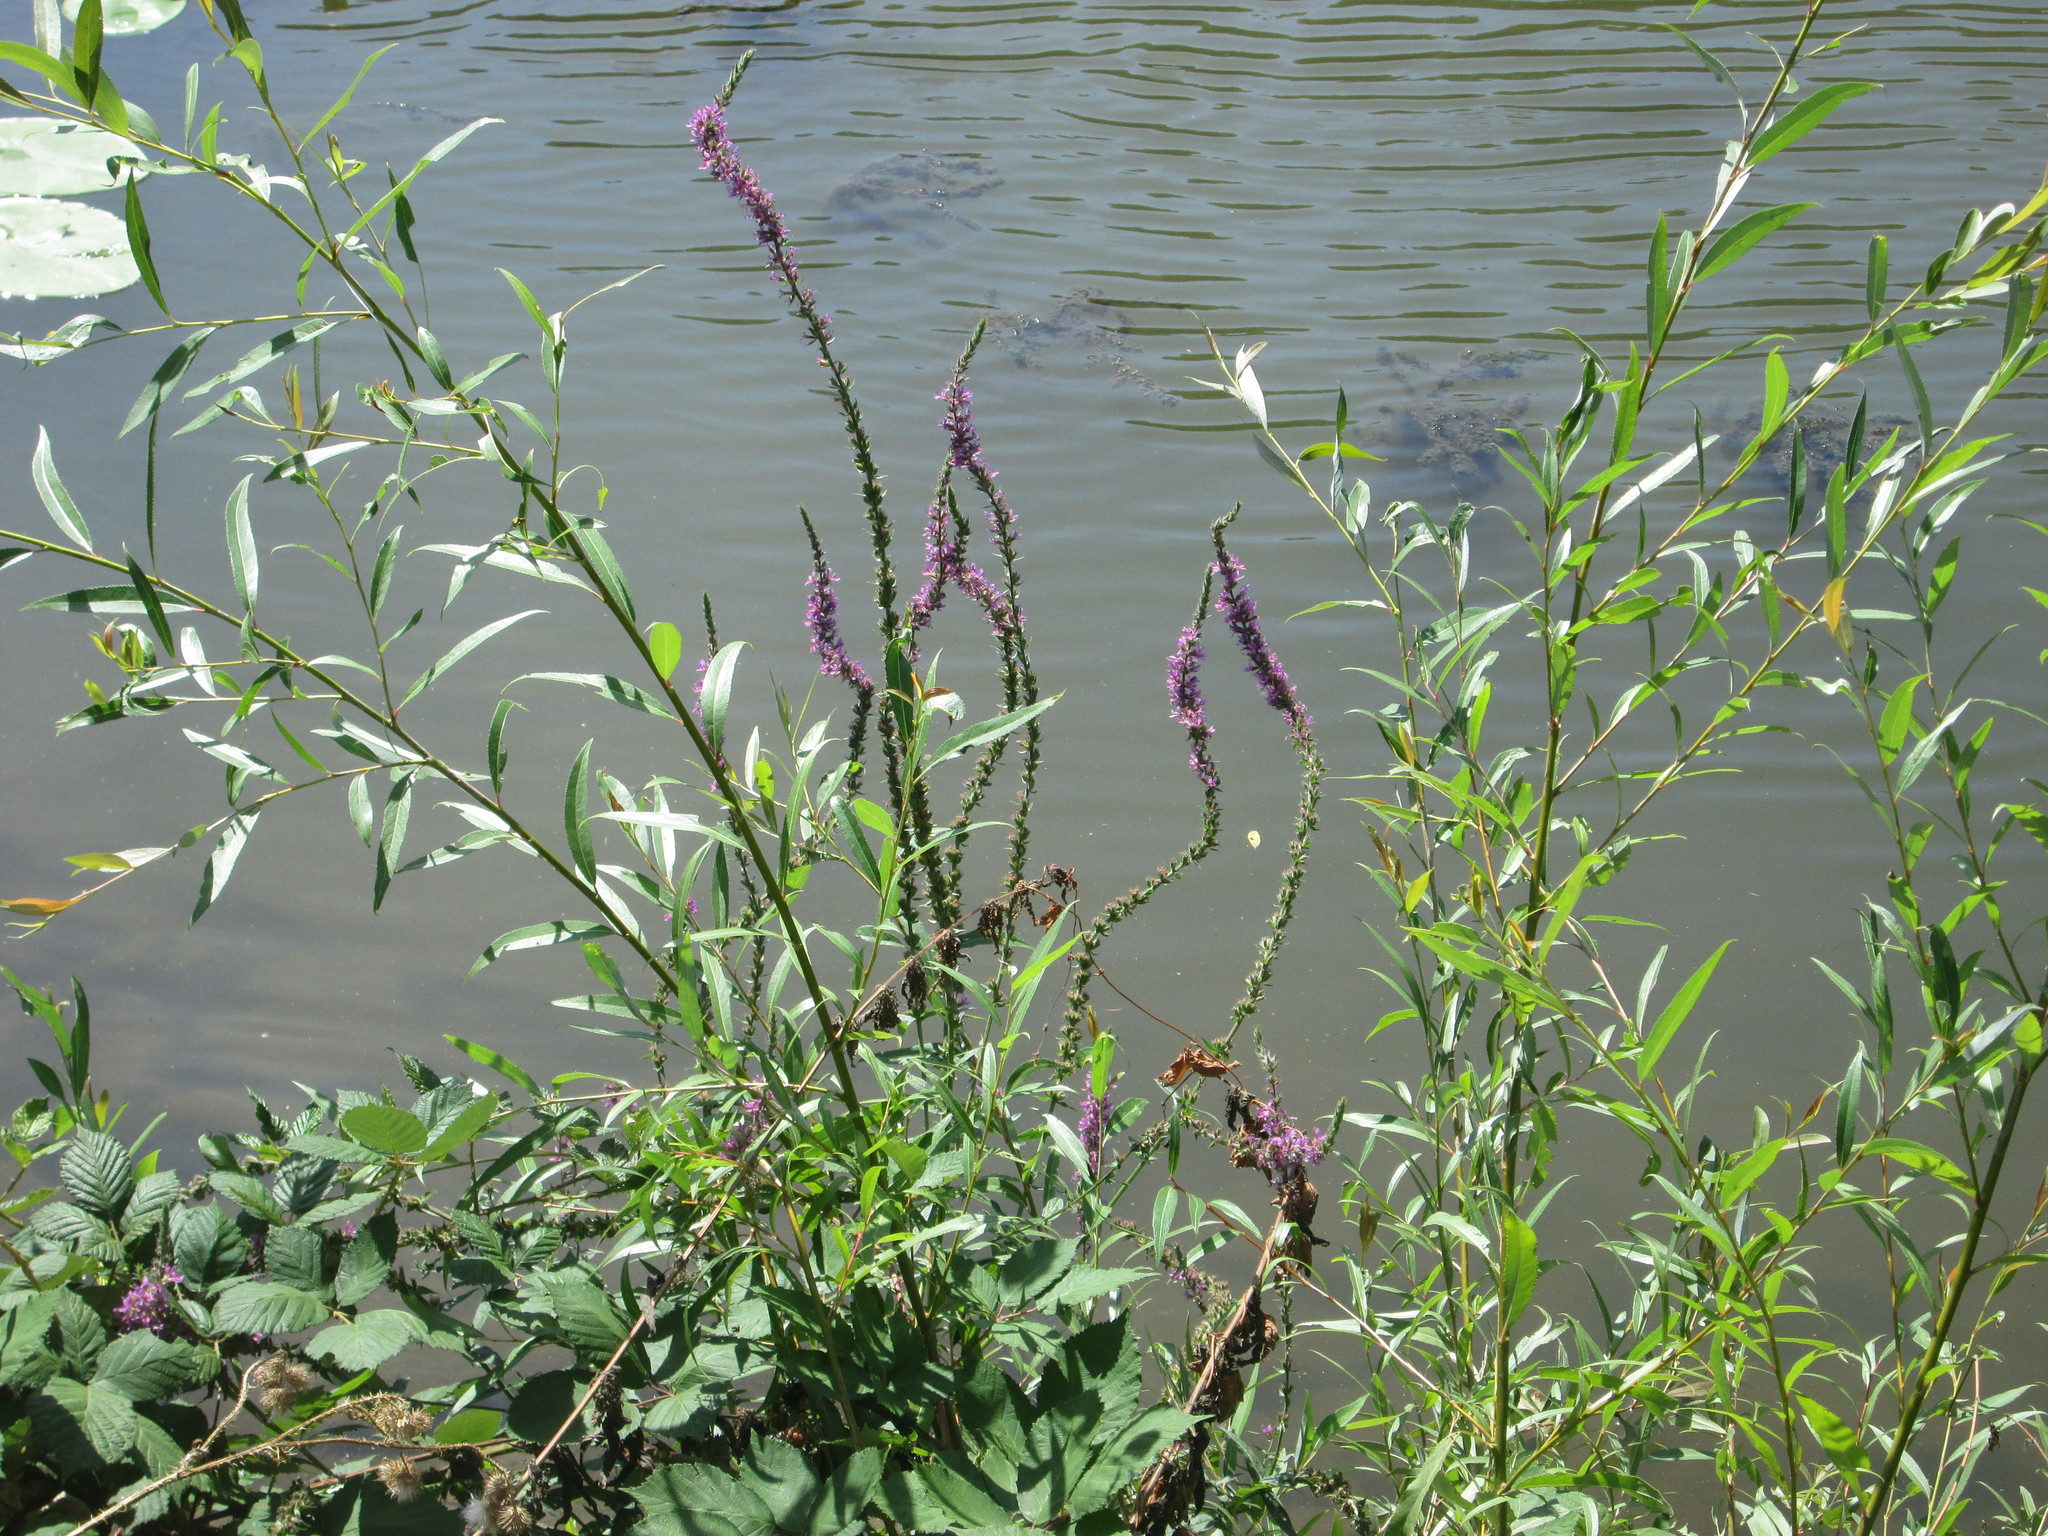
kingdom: Plantae
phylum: Tracheophyta
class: Magnoliopsida
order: Myrtales
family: Lythraceae
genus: Lythrum
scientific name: Lythrum salicaria
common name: Purple loosestrife
